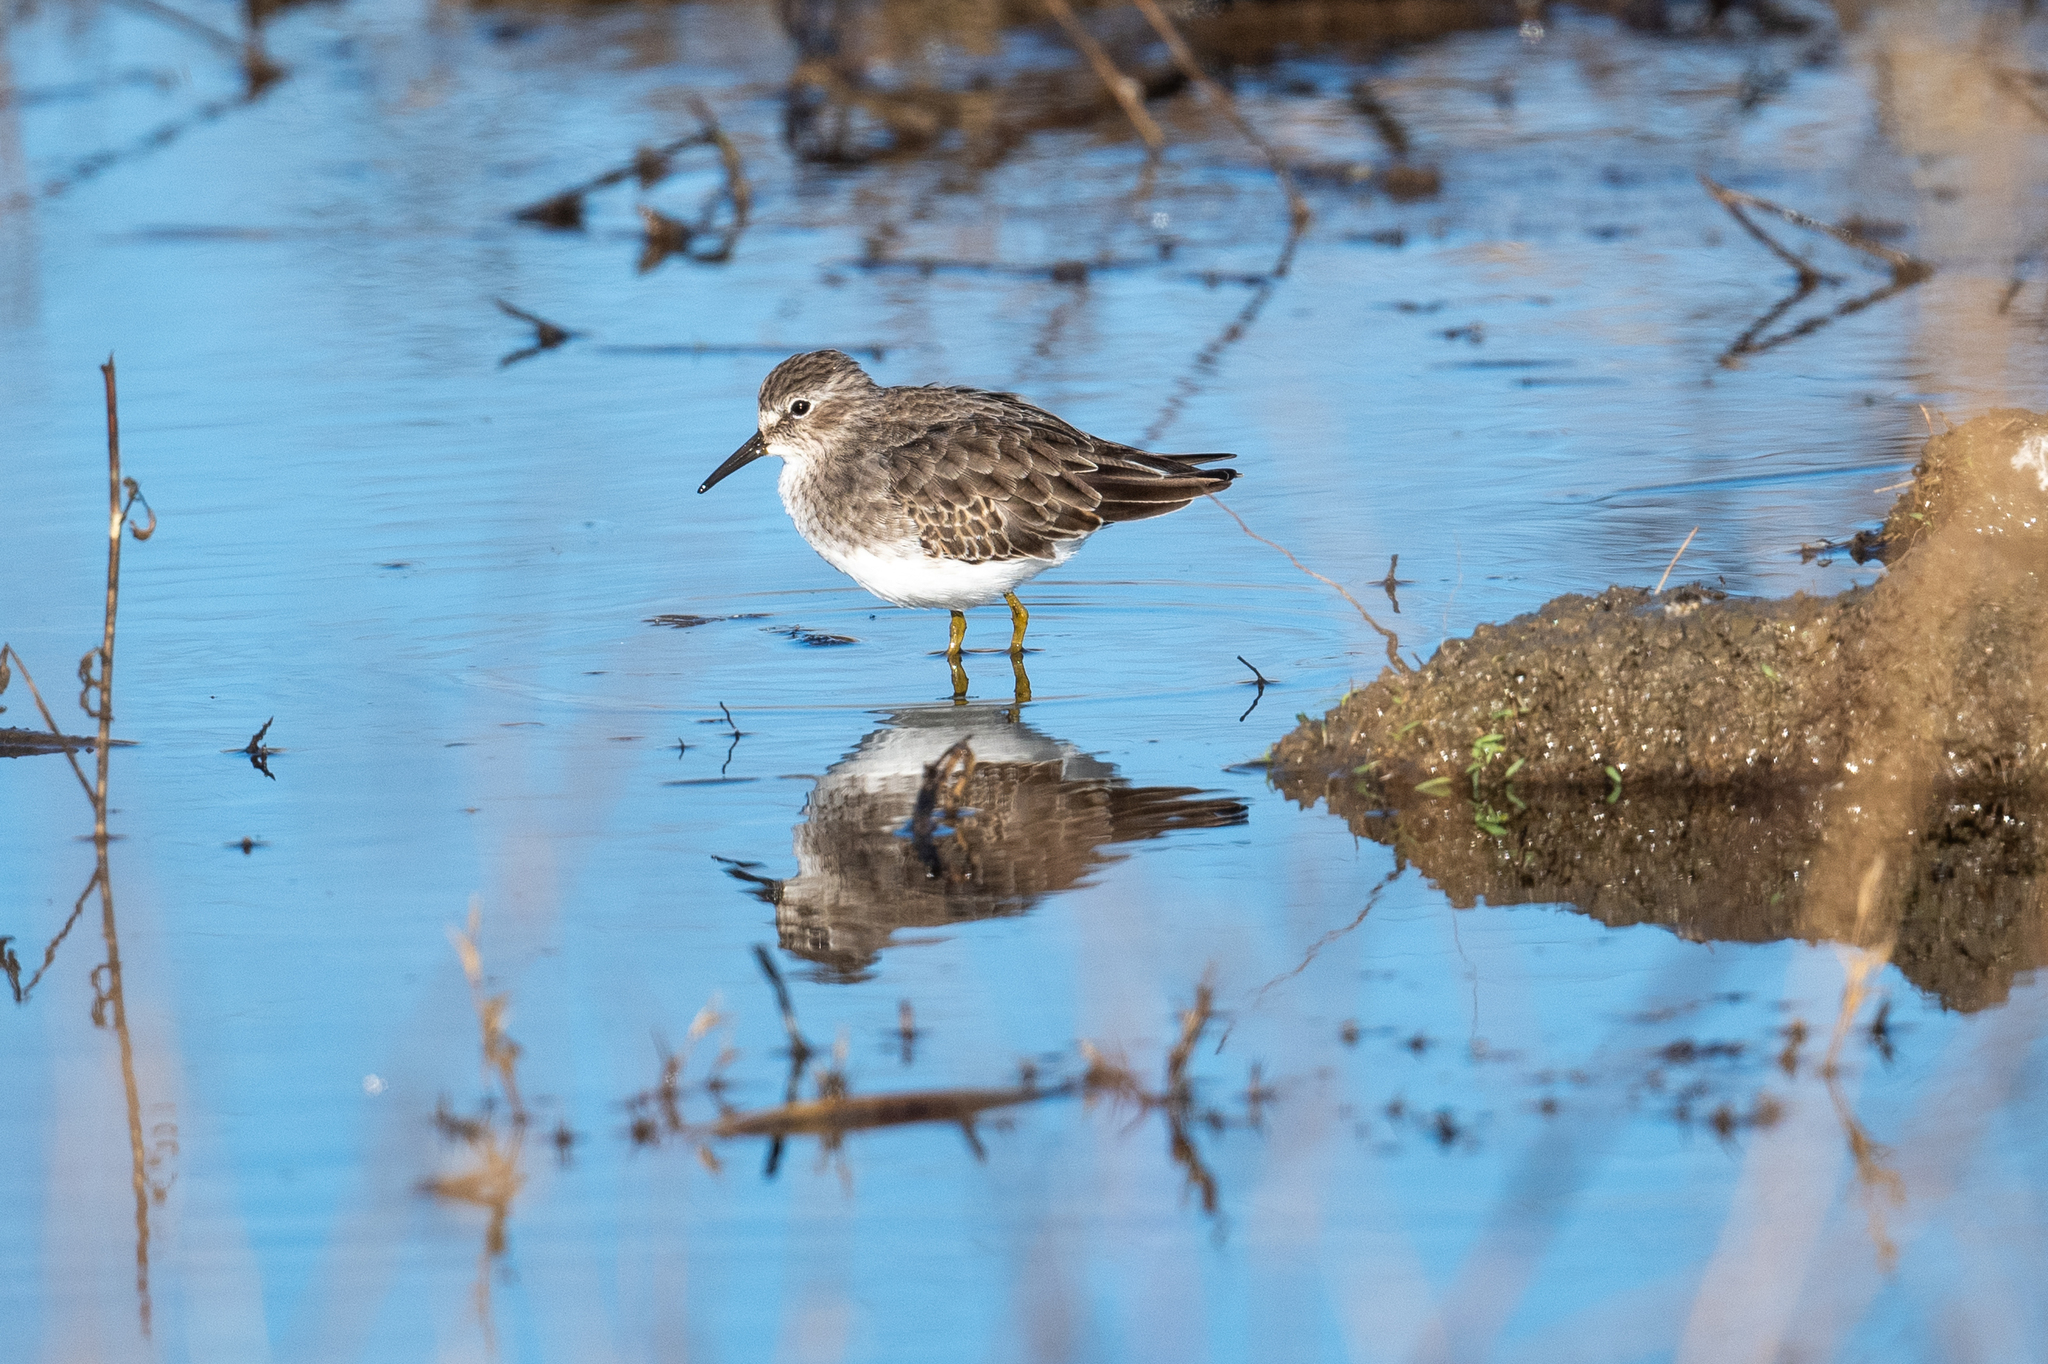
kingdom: Animalia
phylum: Chordata
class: Aves
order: Charadriiformes
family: Scolopacidae
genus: Calidris
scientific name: Calidris minutilla
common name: Least sandpiper
